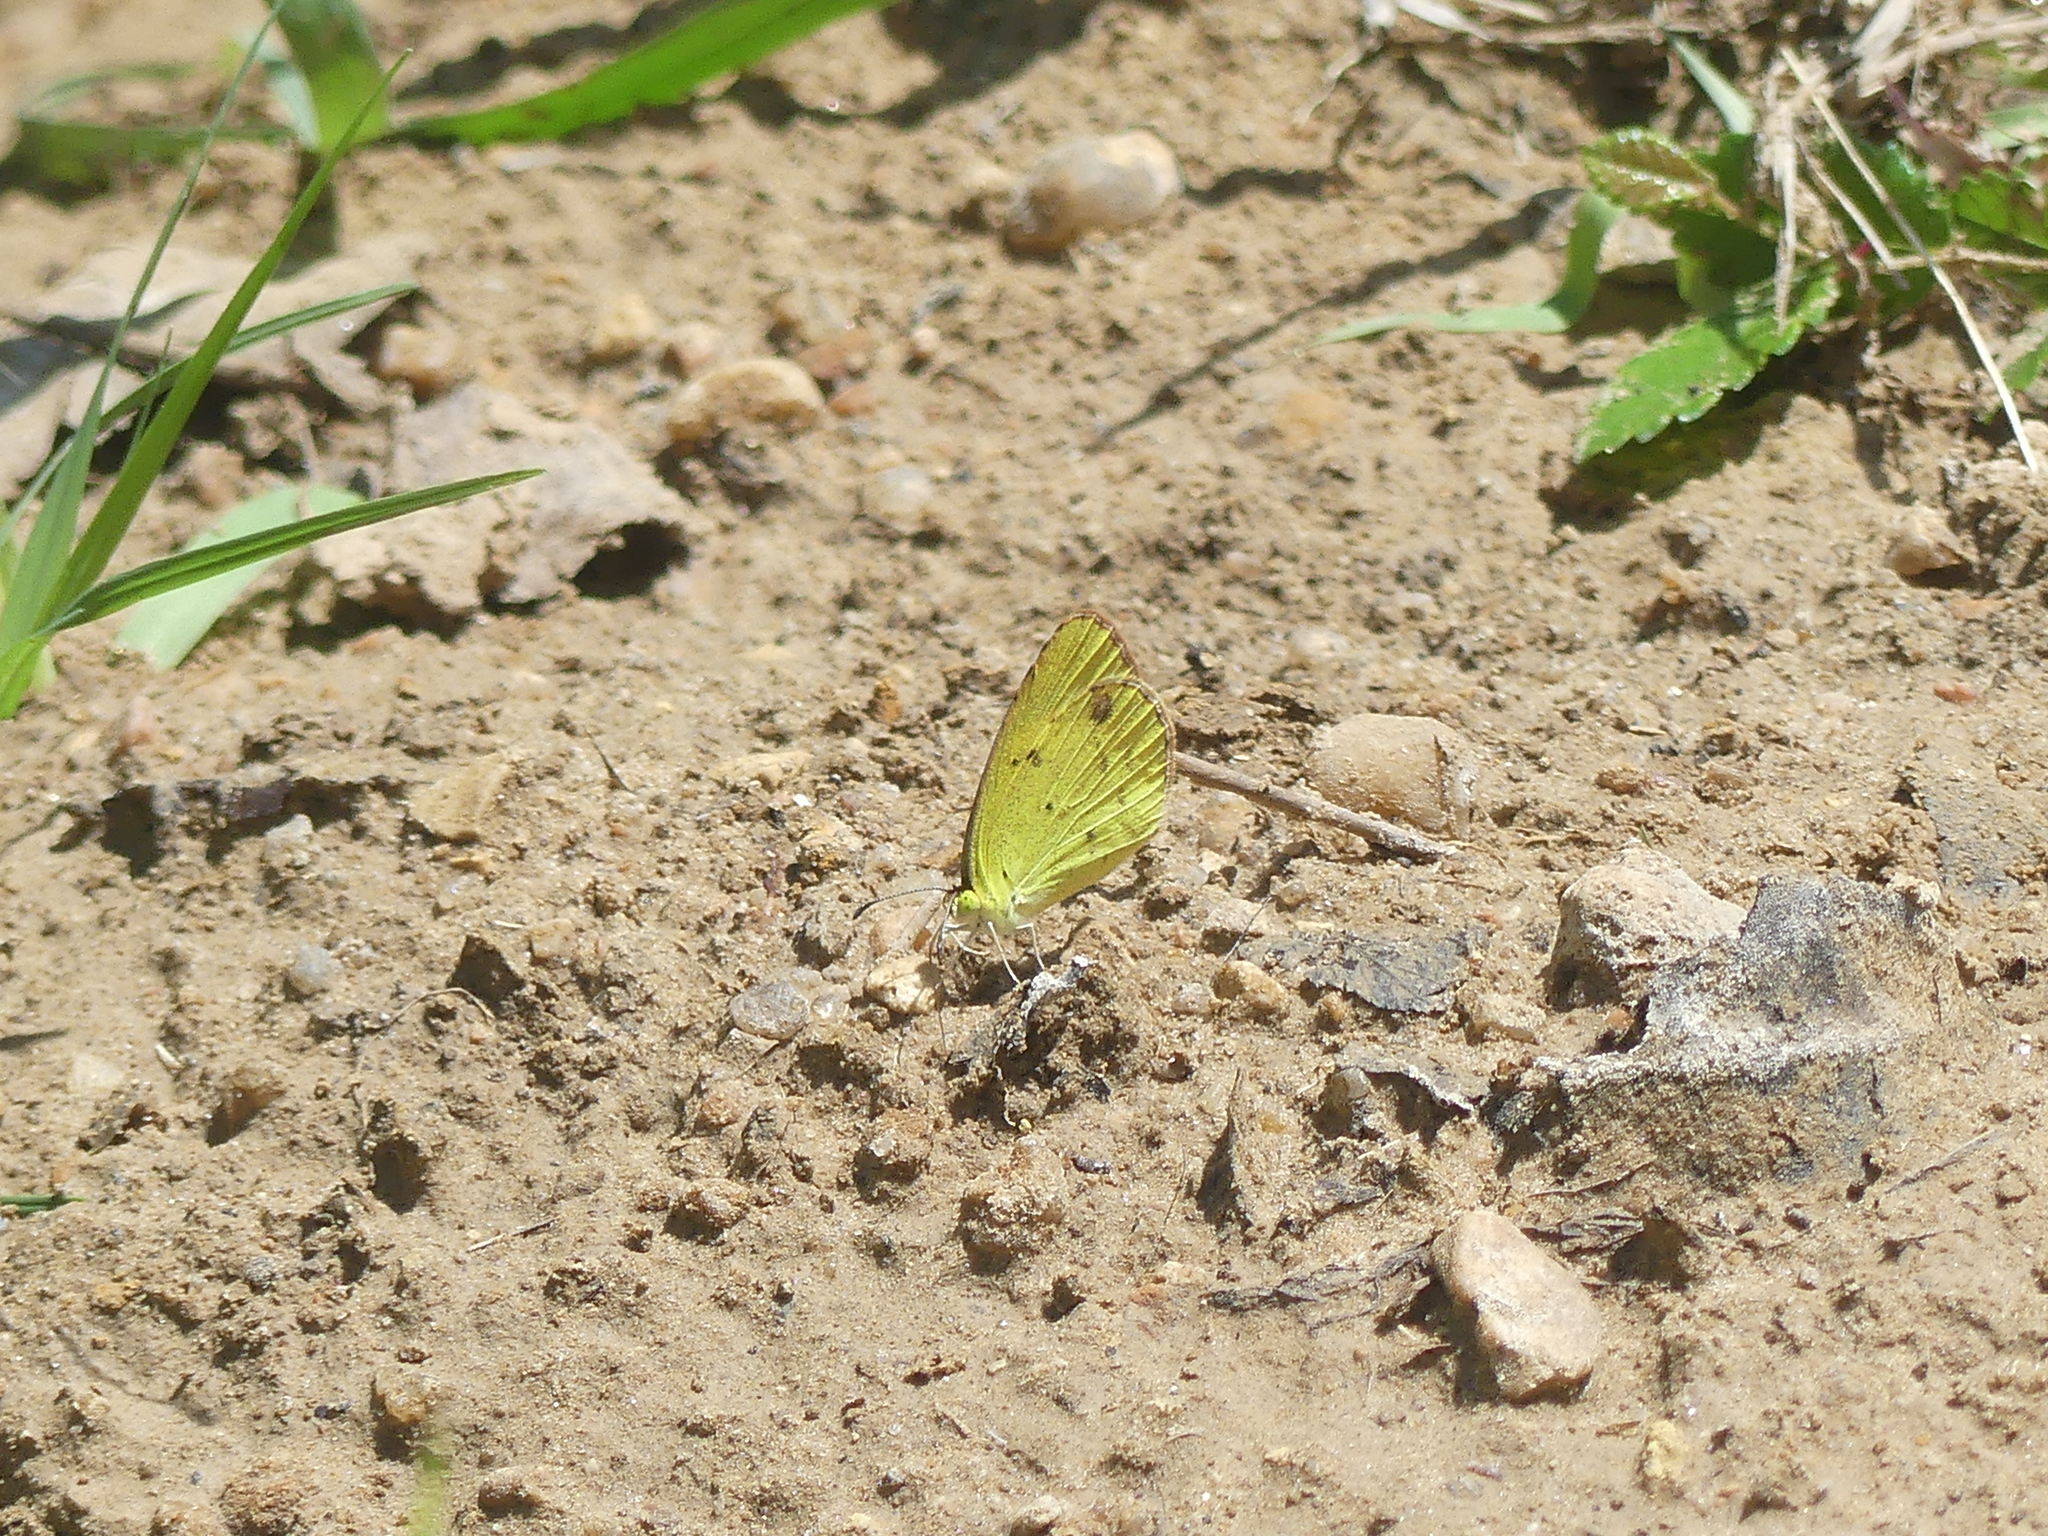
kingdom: Animalia
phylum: Arthropoda
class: Insecta
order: Lepidoptera
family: Pieridae
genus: Pyrisitia
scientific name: Pyrisitia lisa
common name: Little yellow
